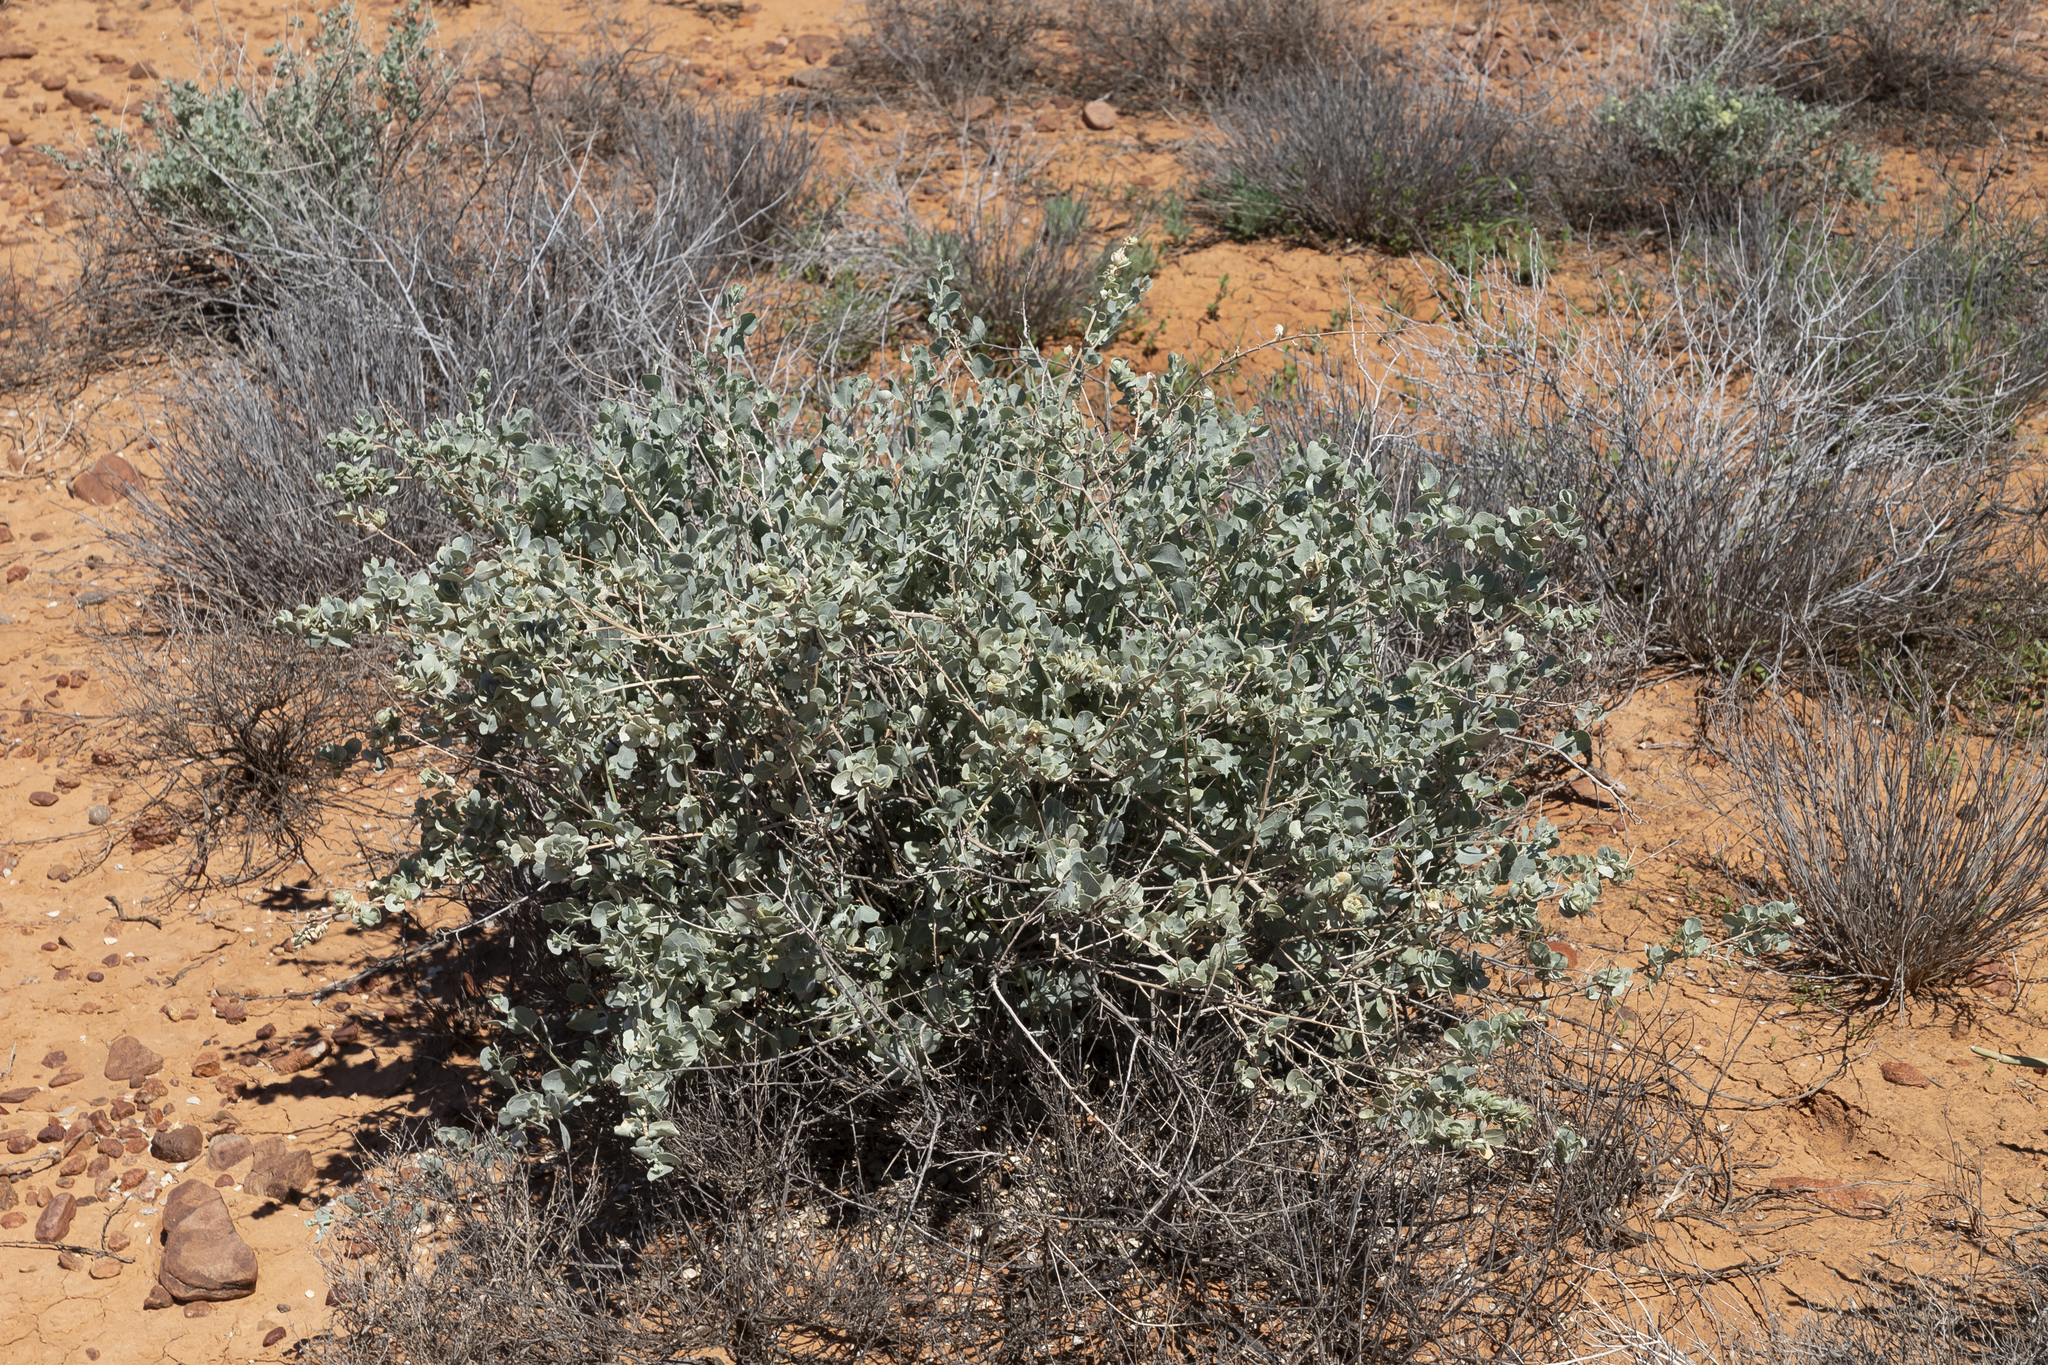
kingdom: Plantae
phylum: Tracheophyta
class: Magnoliopsida
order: Caryophyllales
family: Amaranthaceae
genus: Atriplex
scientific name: Atriplex nummularia
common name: Bluegreen saltbush
